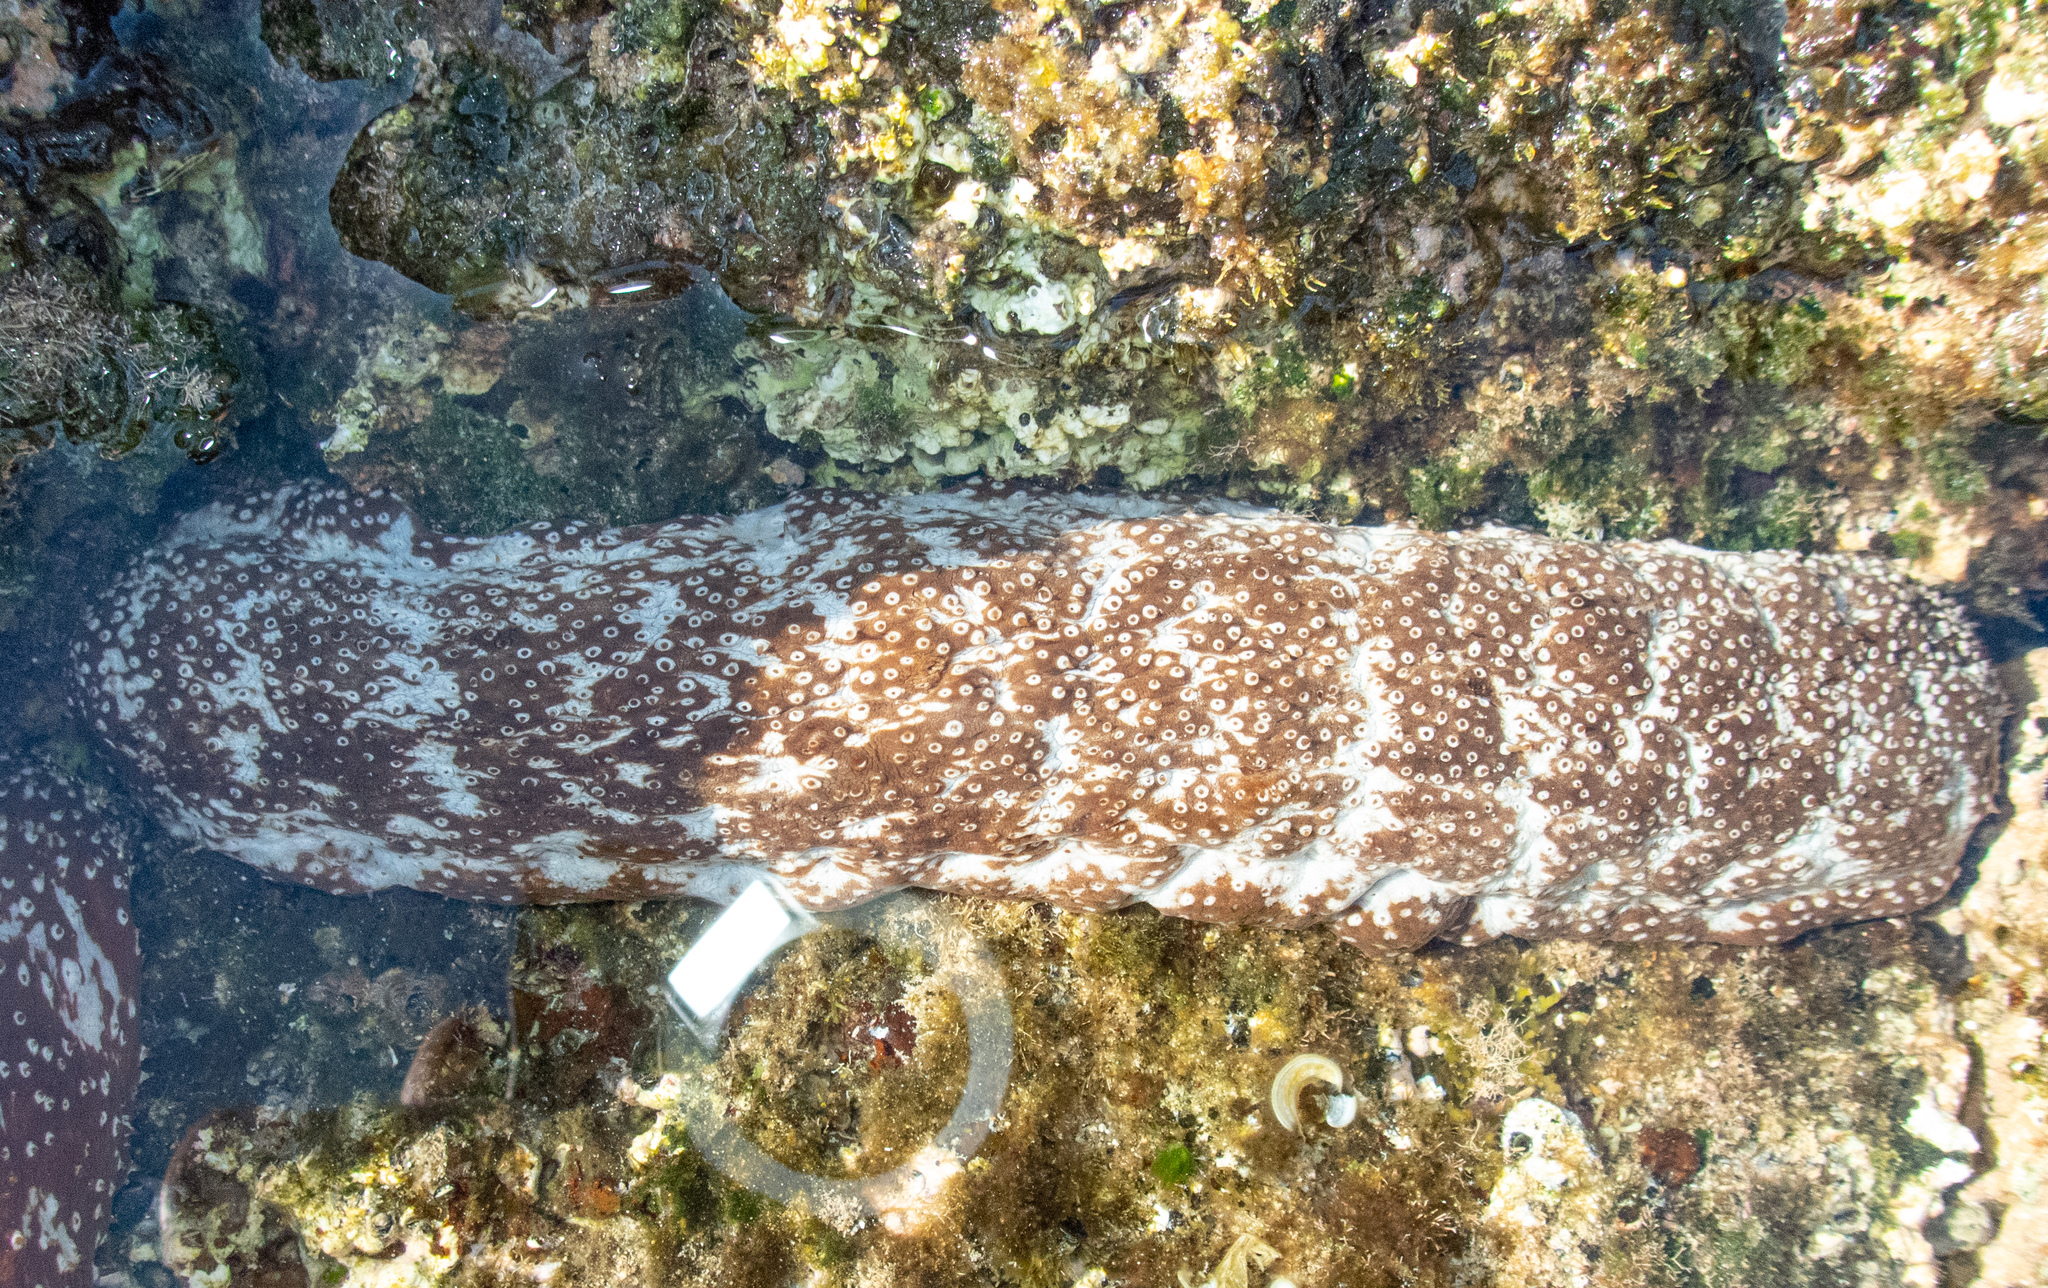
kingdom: Animalia
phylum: Echinodermata
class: Holothuroidea
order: Holothuriida
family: Holothuriidae
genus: Actinopyga
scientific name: Actinopyga varians
